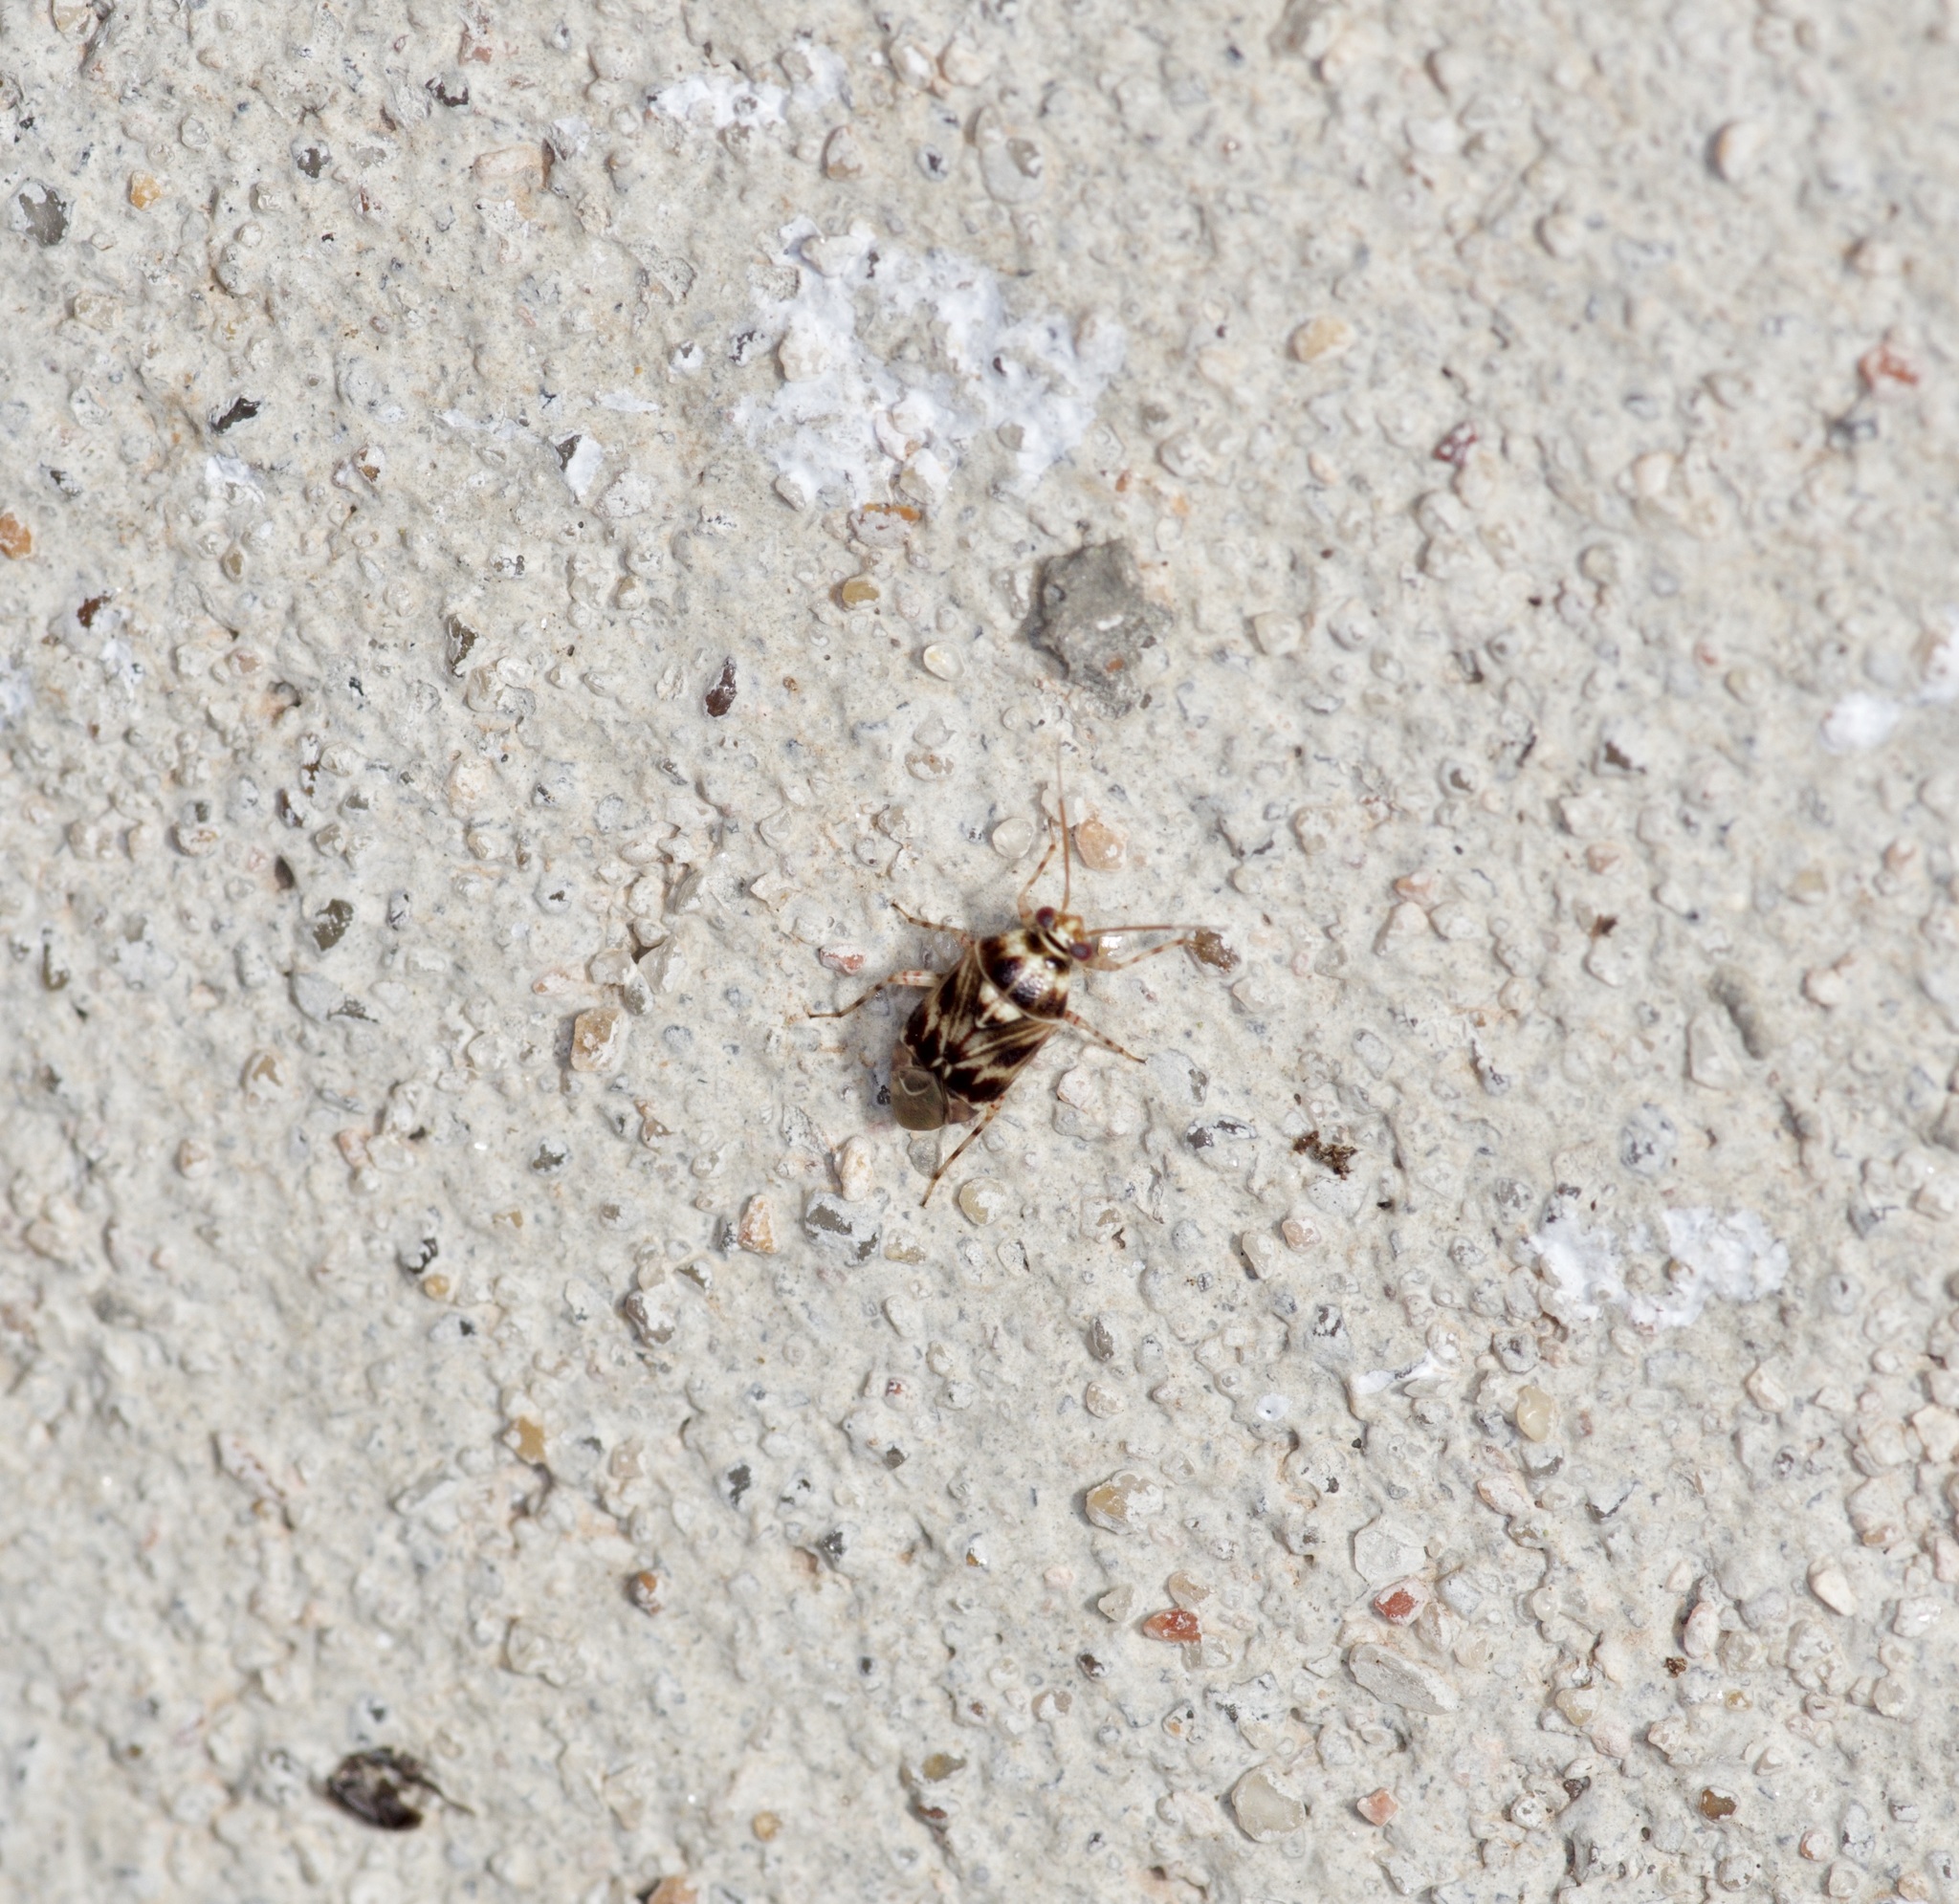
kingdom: Animalia
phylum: Arthropoda
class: Insecta
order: Hemiptera
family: Miridae
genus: Tropidosteptes
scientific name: Tropidosteptes quercicola
